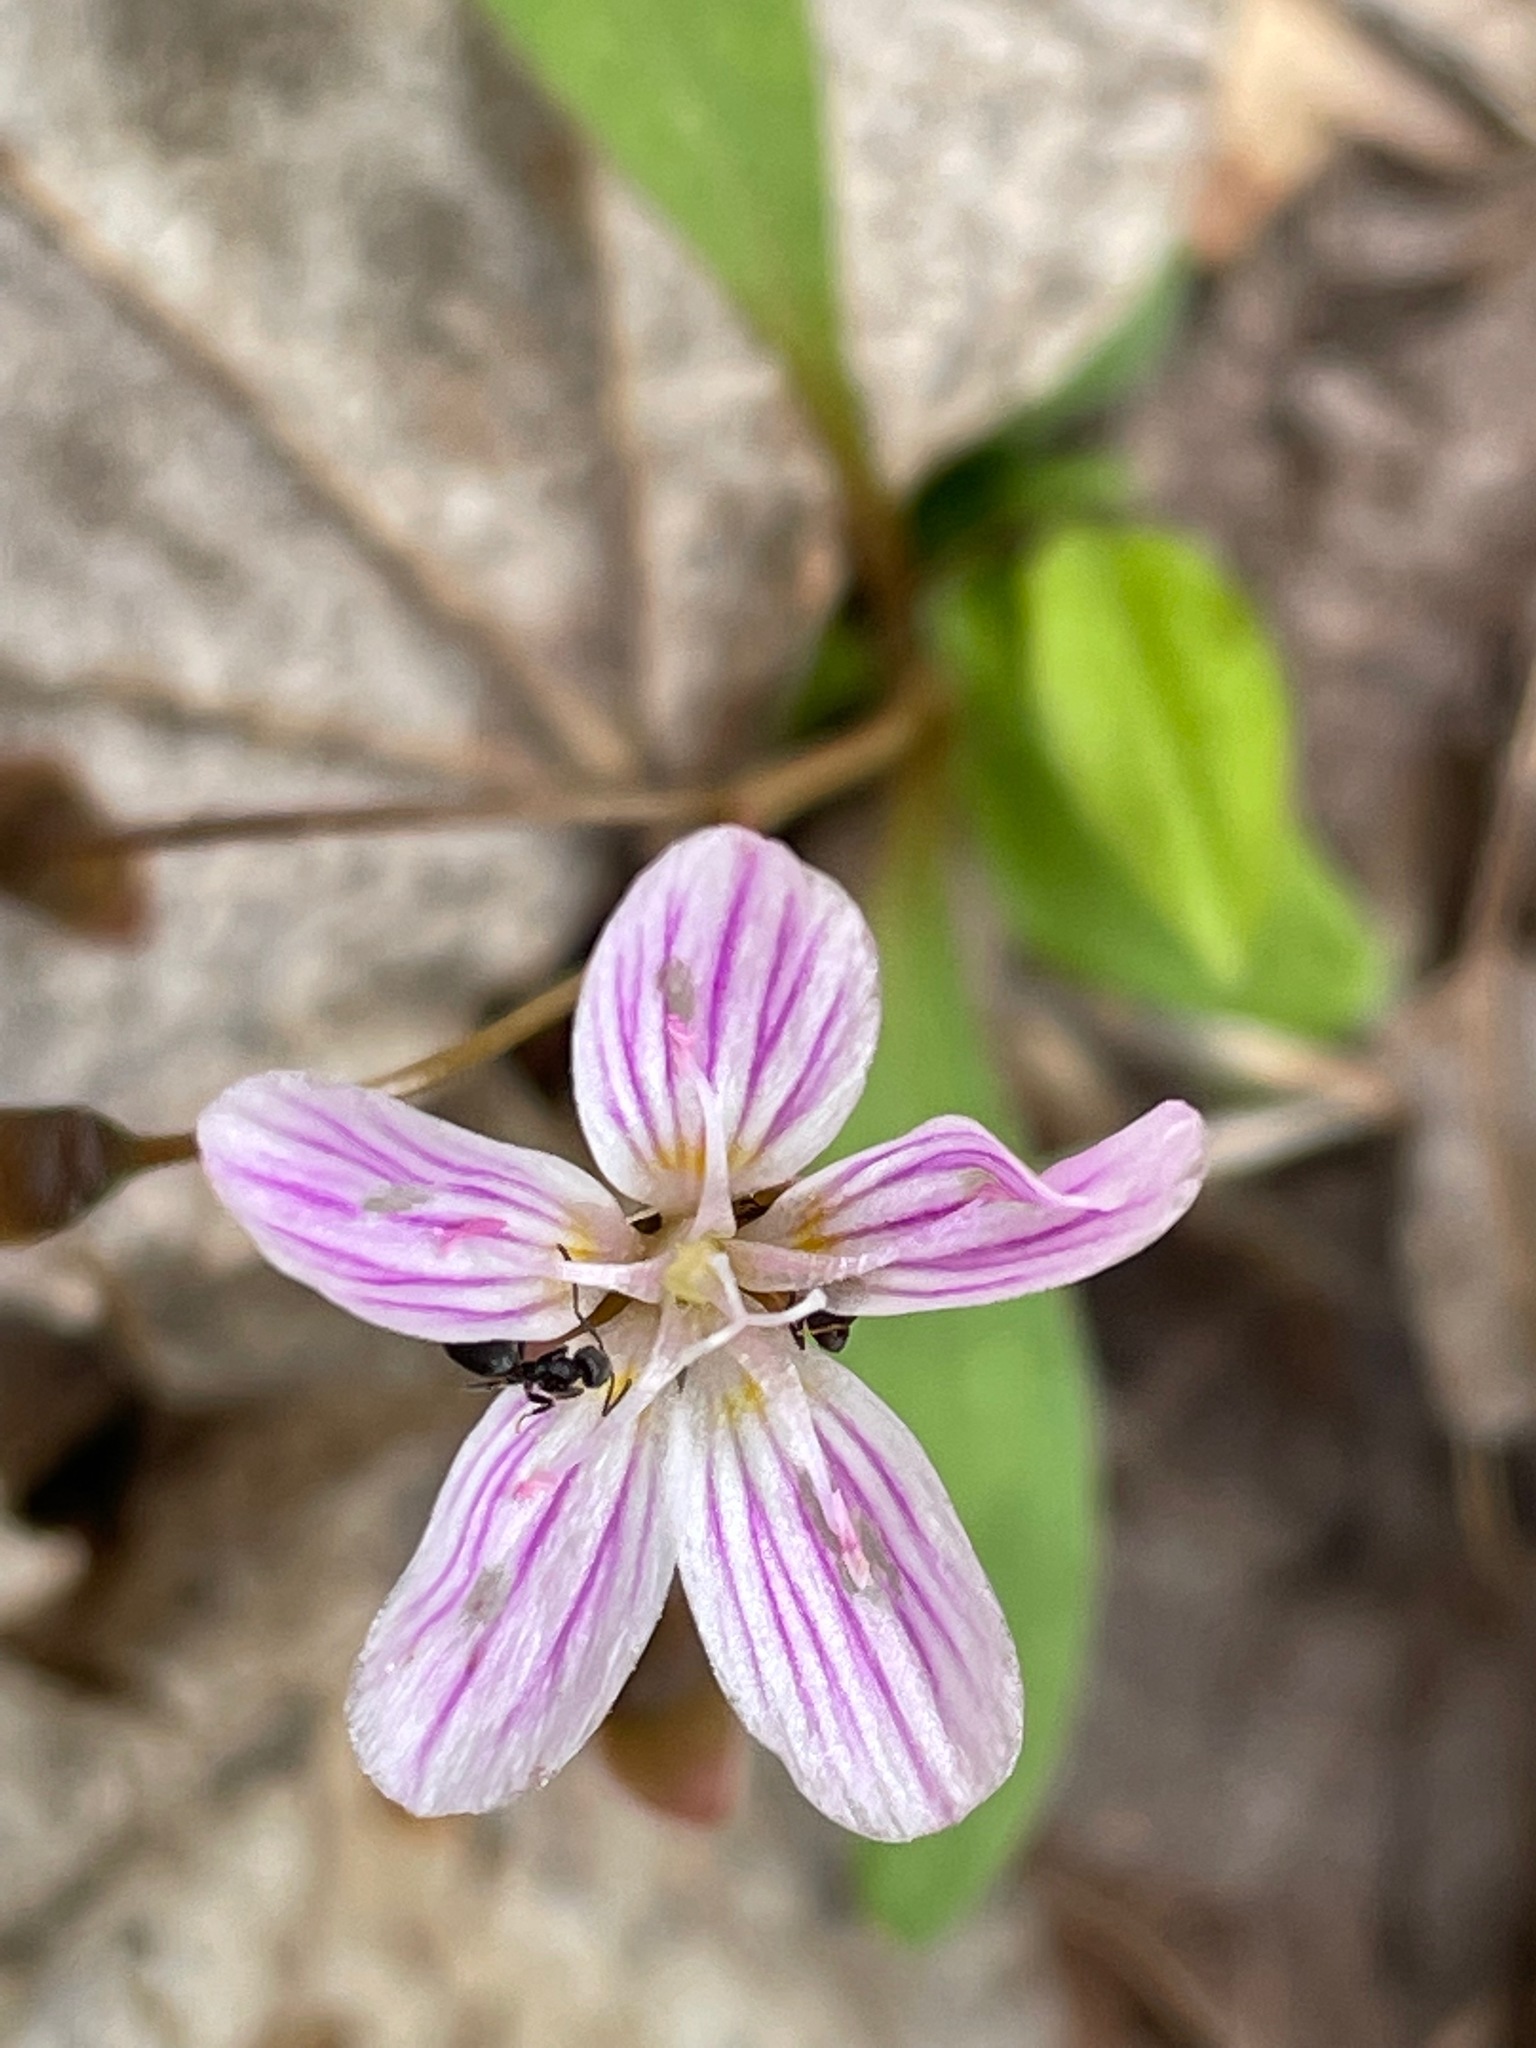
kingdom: Plantae
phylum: Tracheophyta
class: Magnoliopsida
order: Caryophyllales
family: Montiaceae
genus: Claytonia
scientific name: Claytonia caroliniana
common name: Carolina spring beauty
